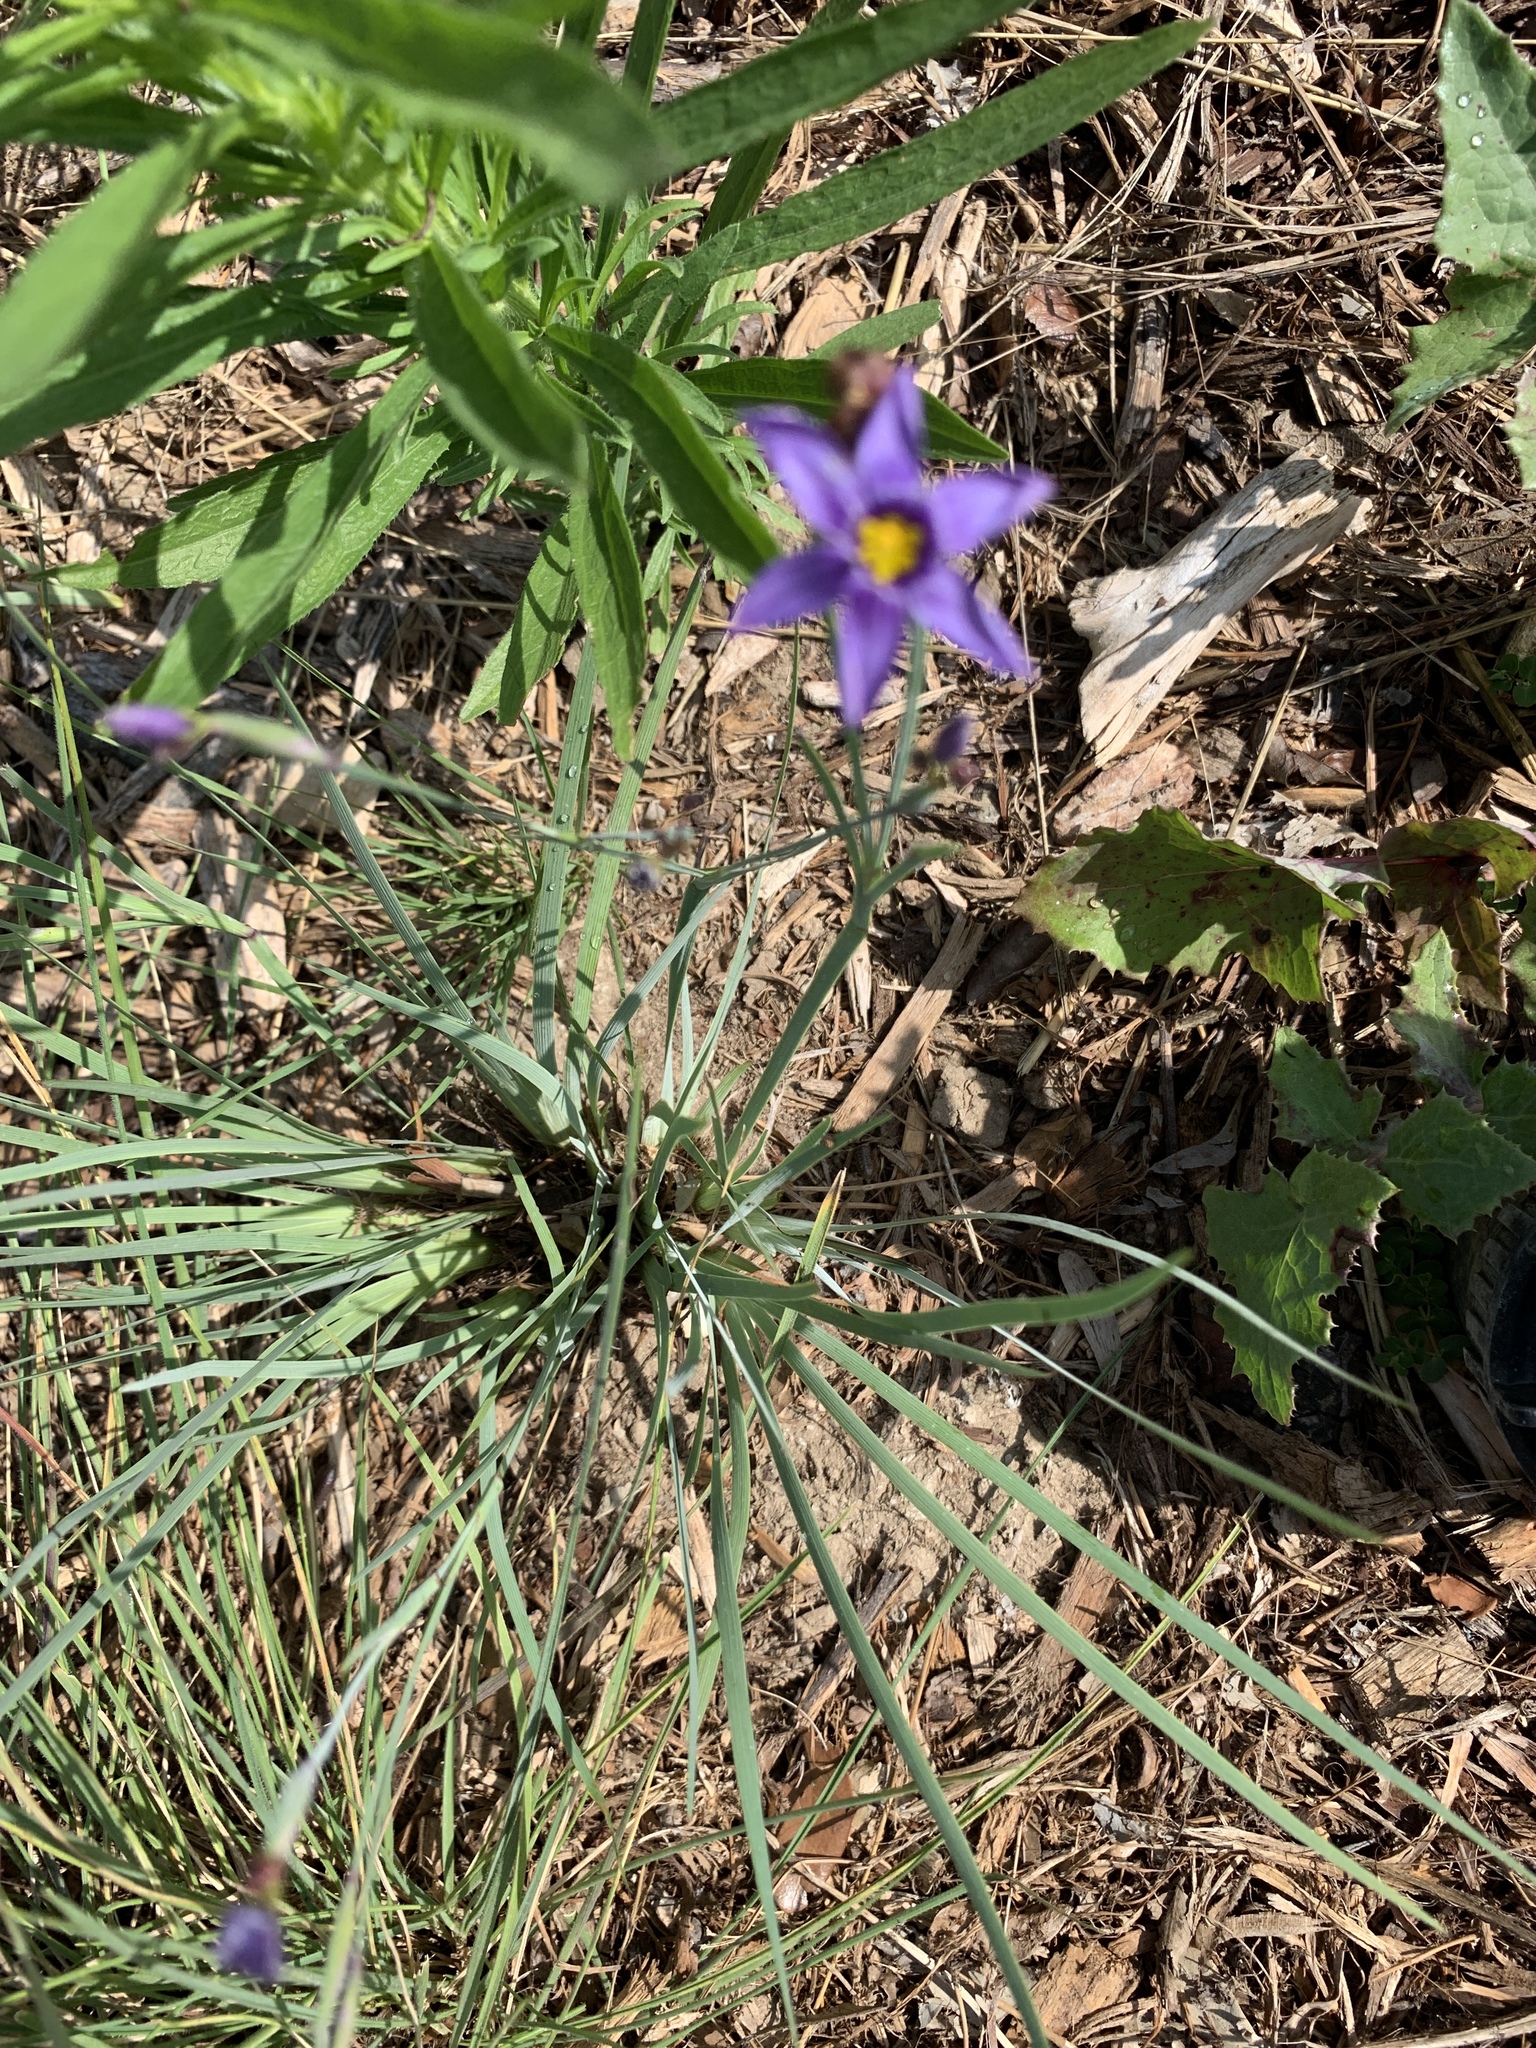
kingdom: Plantae
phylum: Tracheophyta
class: Liliopsida
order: Asparagales
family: Iridaceae
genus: Sisyrinchium
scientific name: Sisyrinchium bellum
